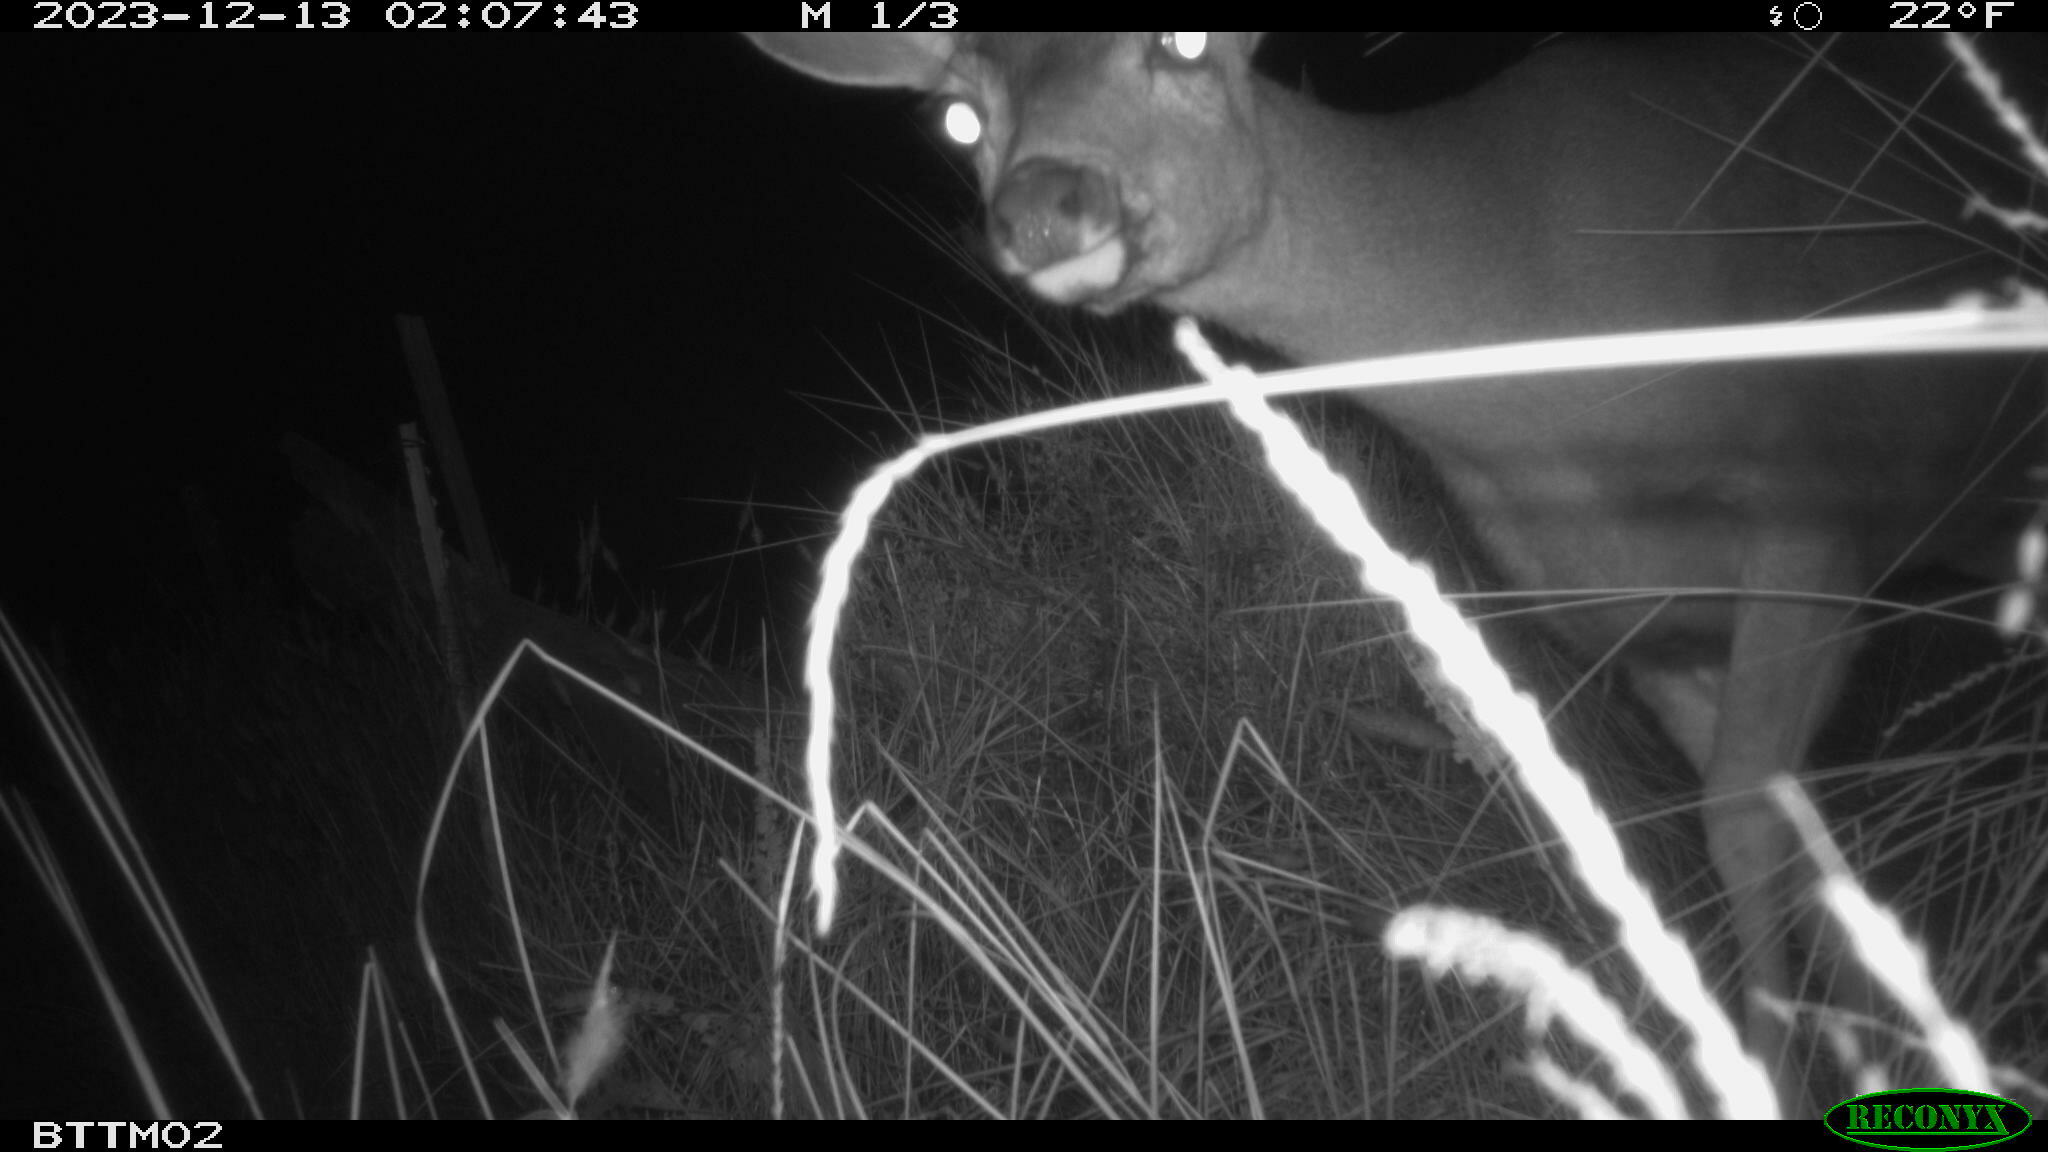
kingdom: Animalia
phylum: Chordata
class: Mammalia
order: Artiodactyla
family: Cervidae
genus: Odocoileus
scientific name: Odocoileus hemionus
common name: Mule deer
